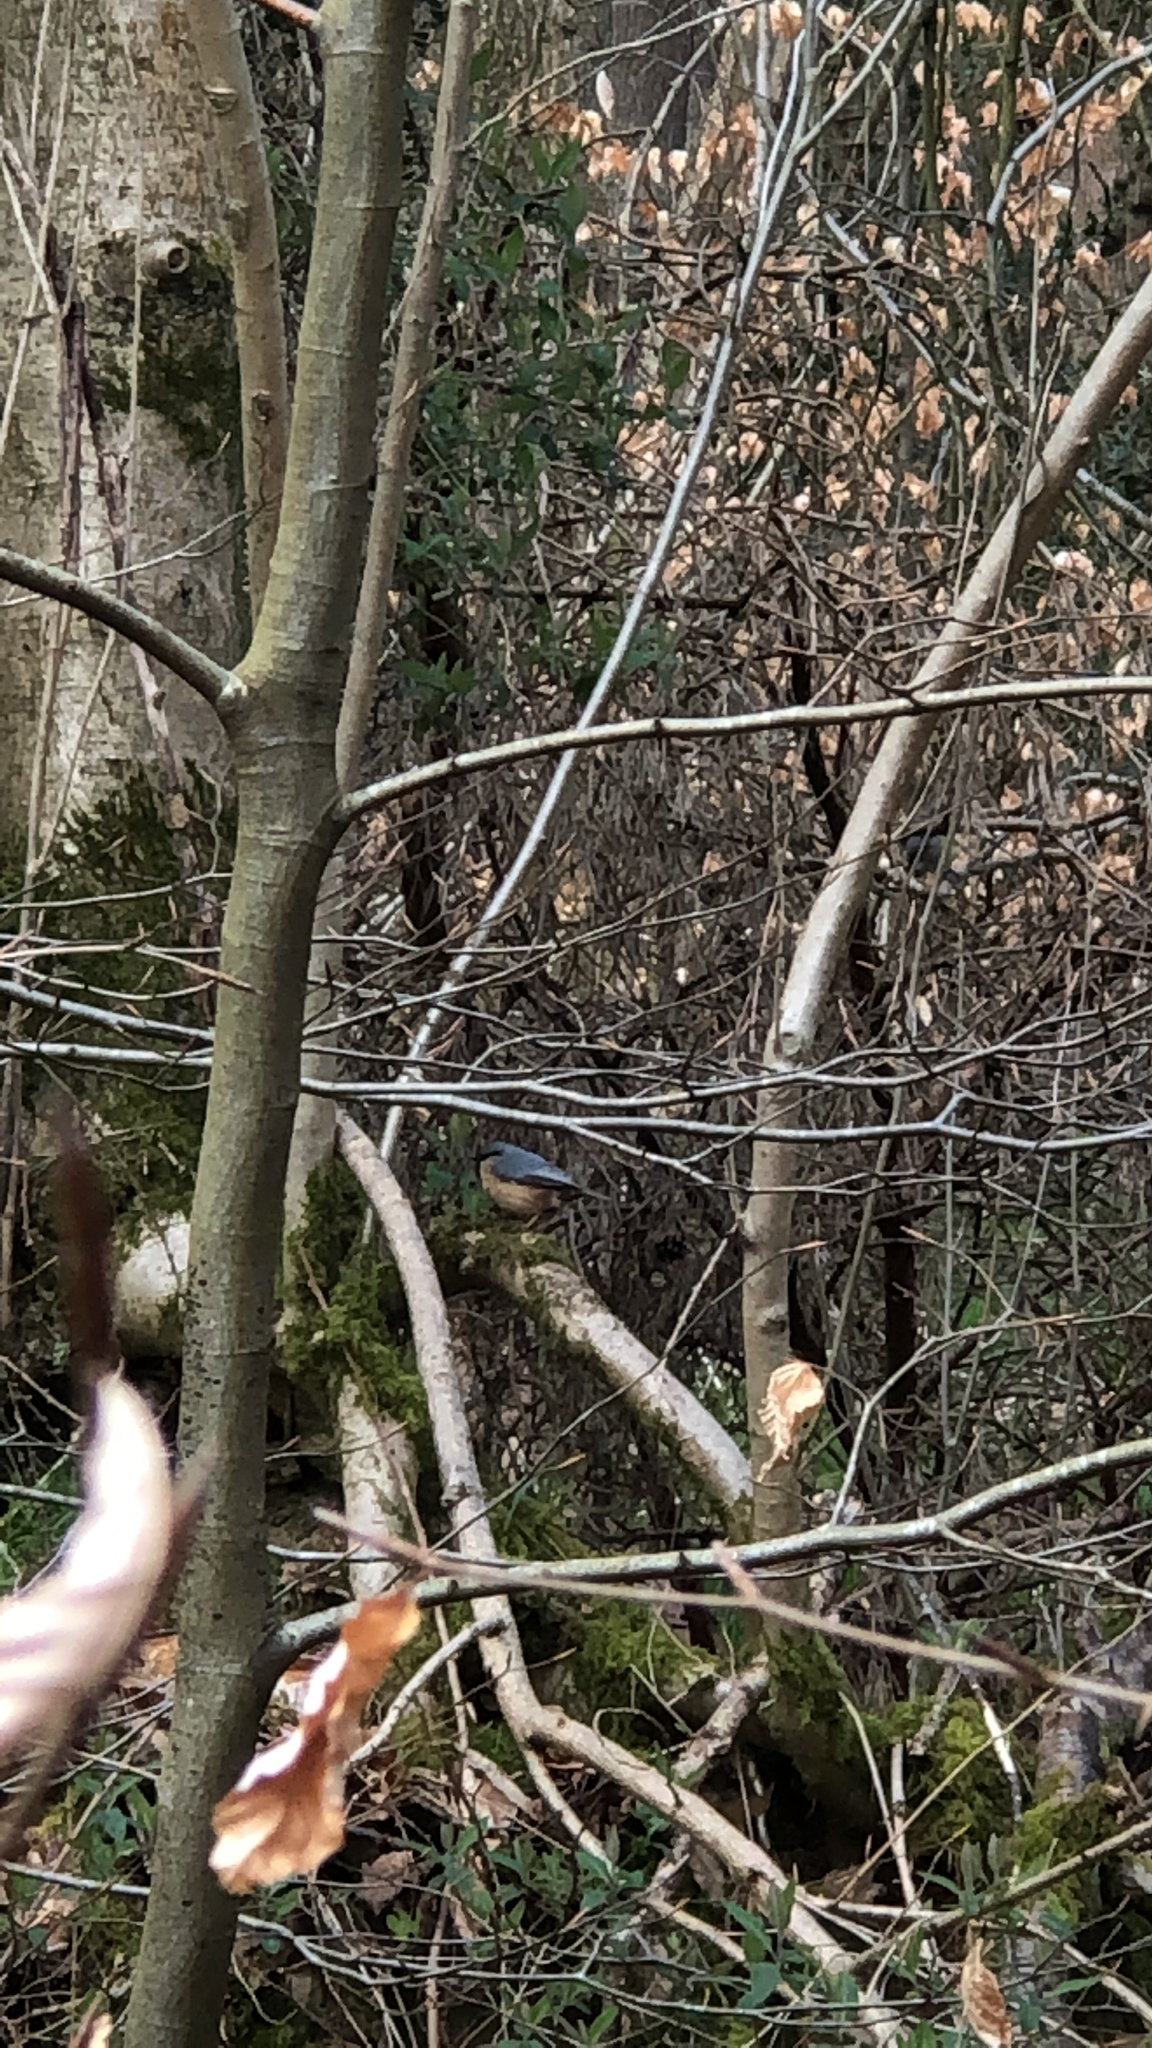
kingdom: Animalia
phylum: Chordata
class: Aves
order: Passeriformes
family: Sittidae
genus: Sitta
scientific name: Sitta europaea
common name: Eurasian nuthatch
